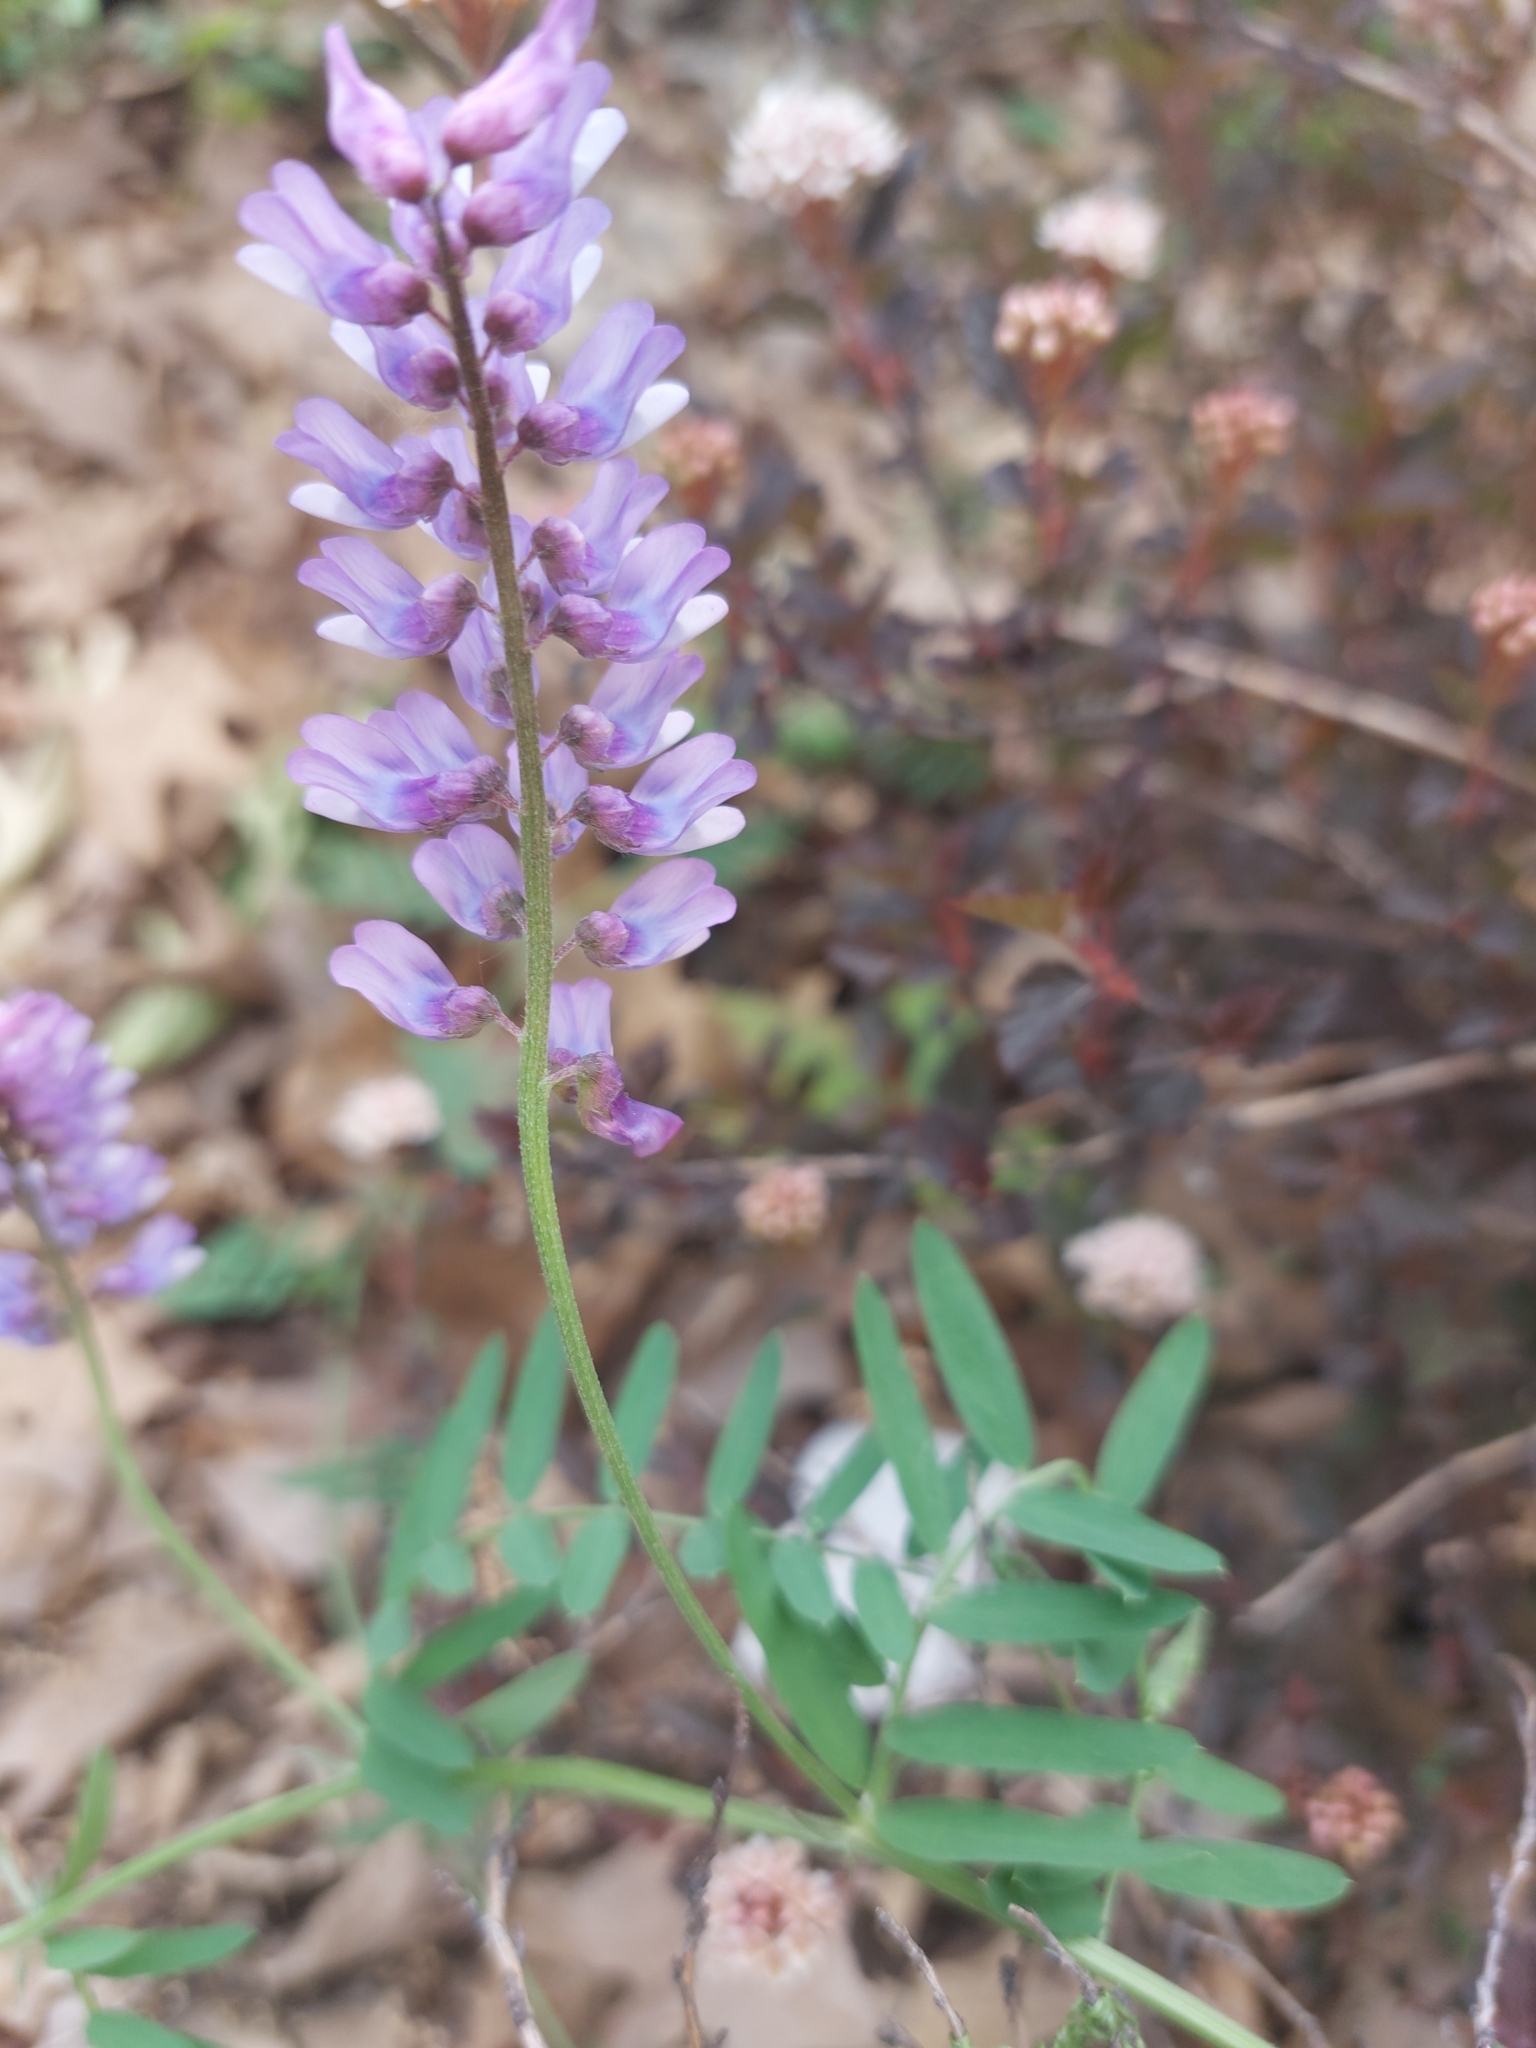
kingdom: Plantae
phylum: Tracheophyta
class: Magnoliopsida
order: Fabales
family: Fabaceae
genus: Vicia
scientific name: Vicia cracca
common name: Bird vetch
